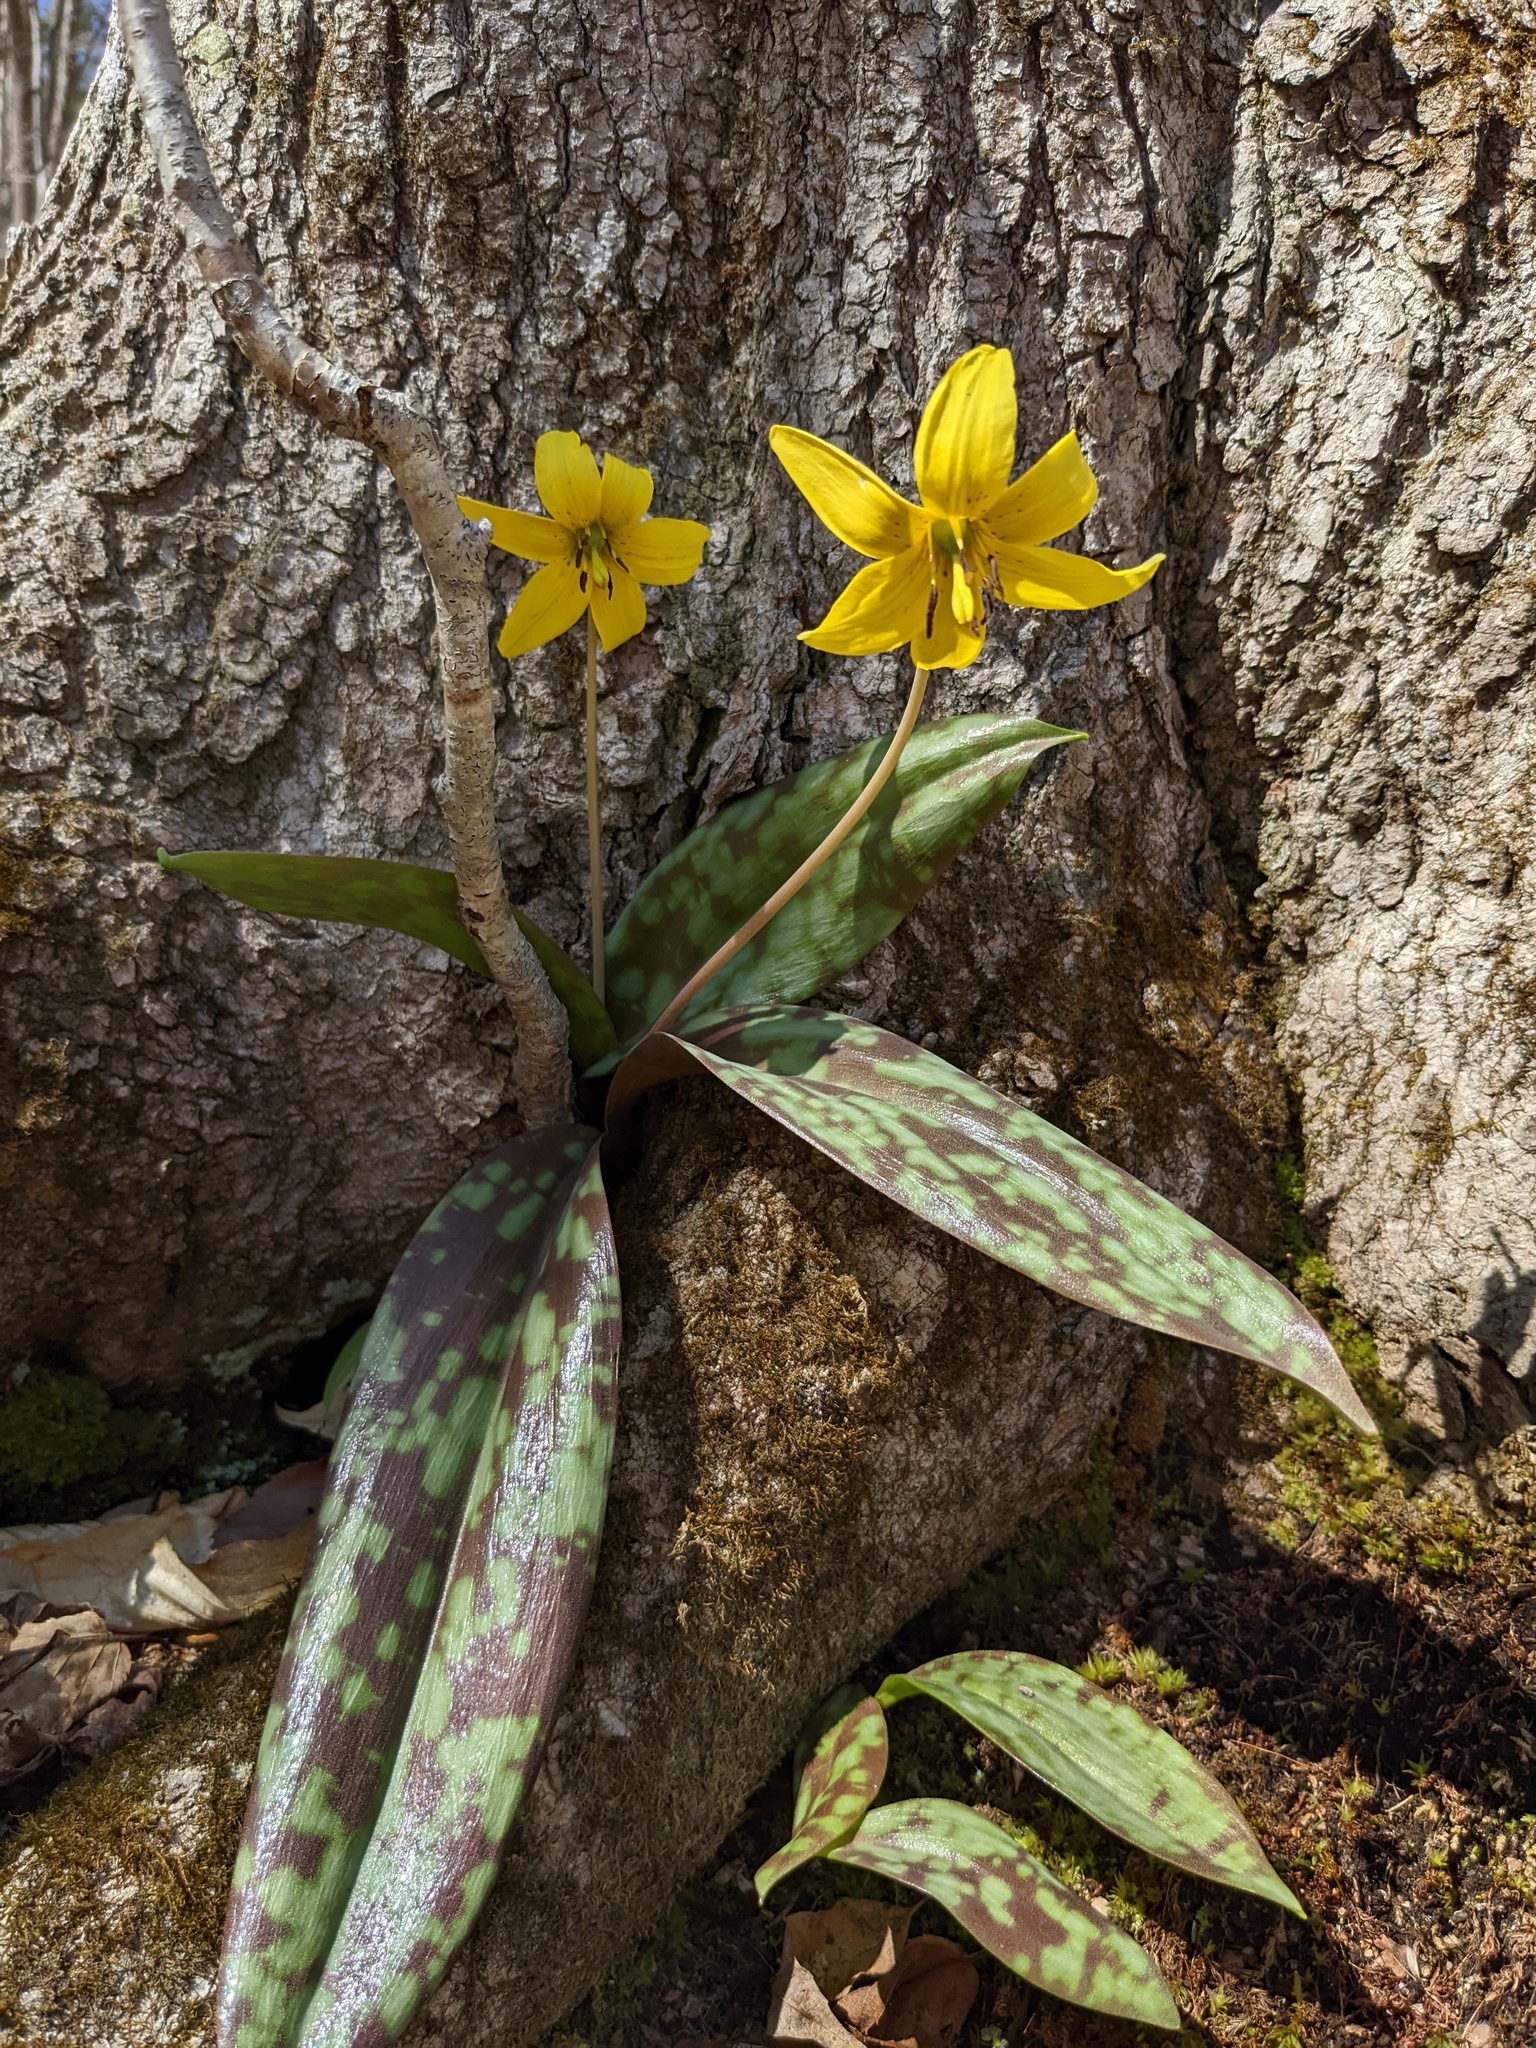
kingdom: Plantae
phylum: Tracheophyta
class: Liliopsida
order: Liliales
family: Liliaceae
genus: Erythronium
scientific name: Erythronium americanum
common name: Yellow adder's-tongue
